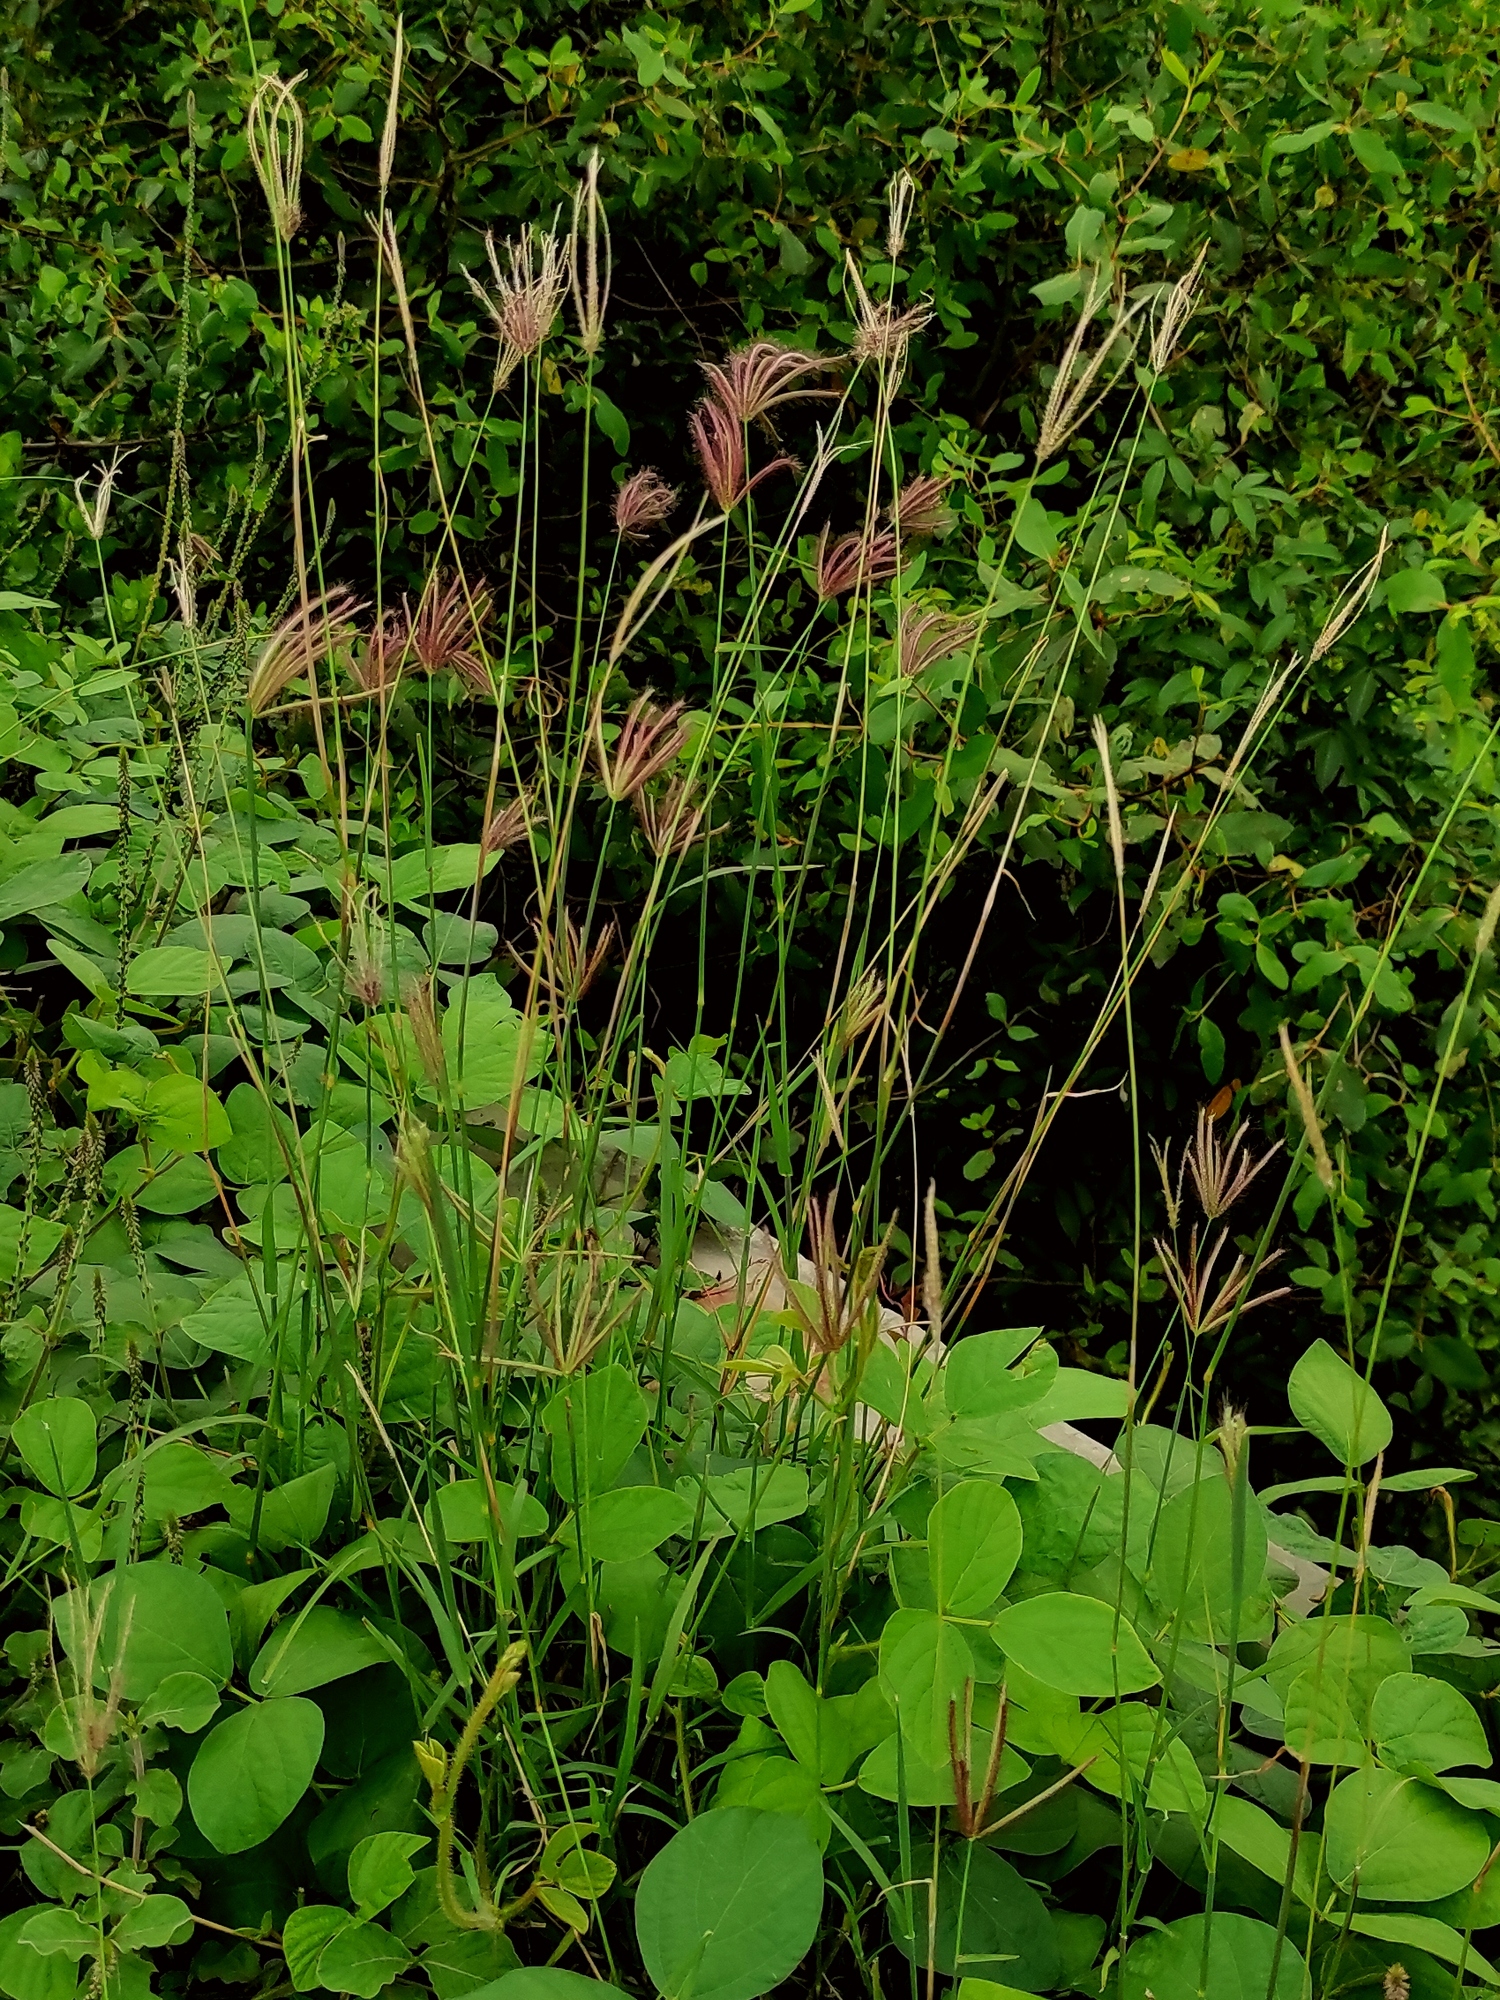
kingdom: Plantae
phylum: Tracheophyta
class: Liliopsida
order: Poales
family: Poaceae
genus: Chloris
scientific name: Chloris barbata
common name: Swollen fingergrass
